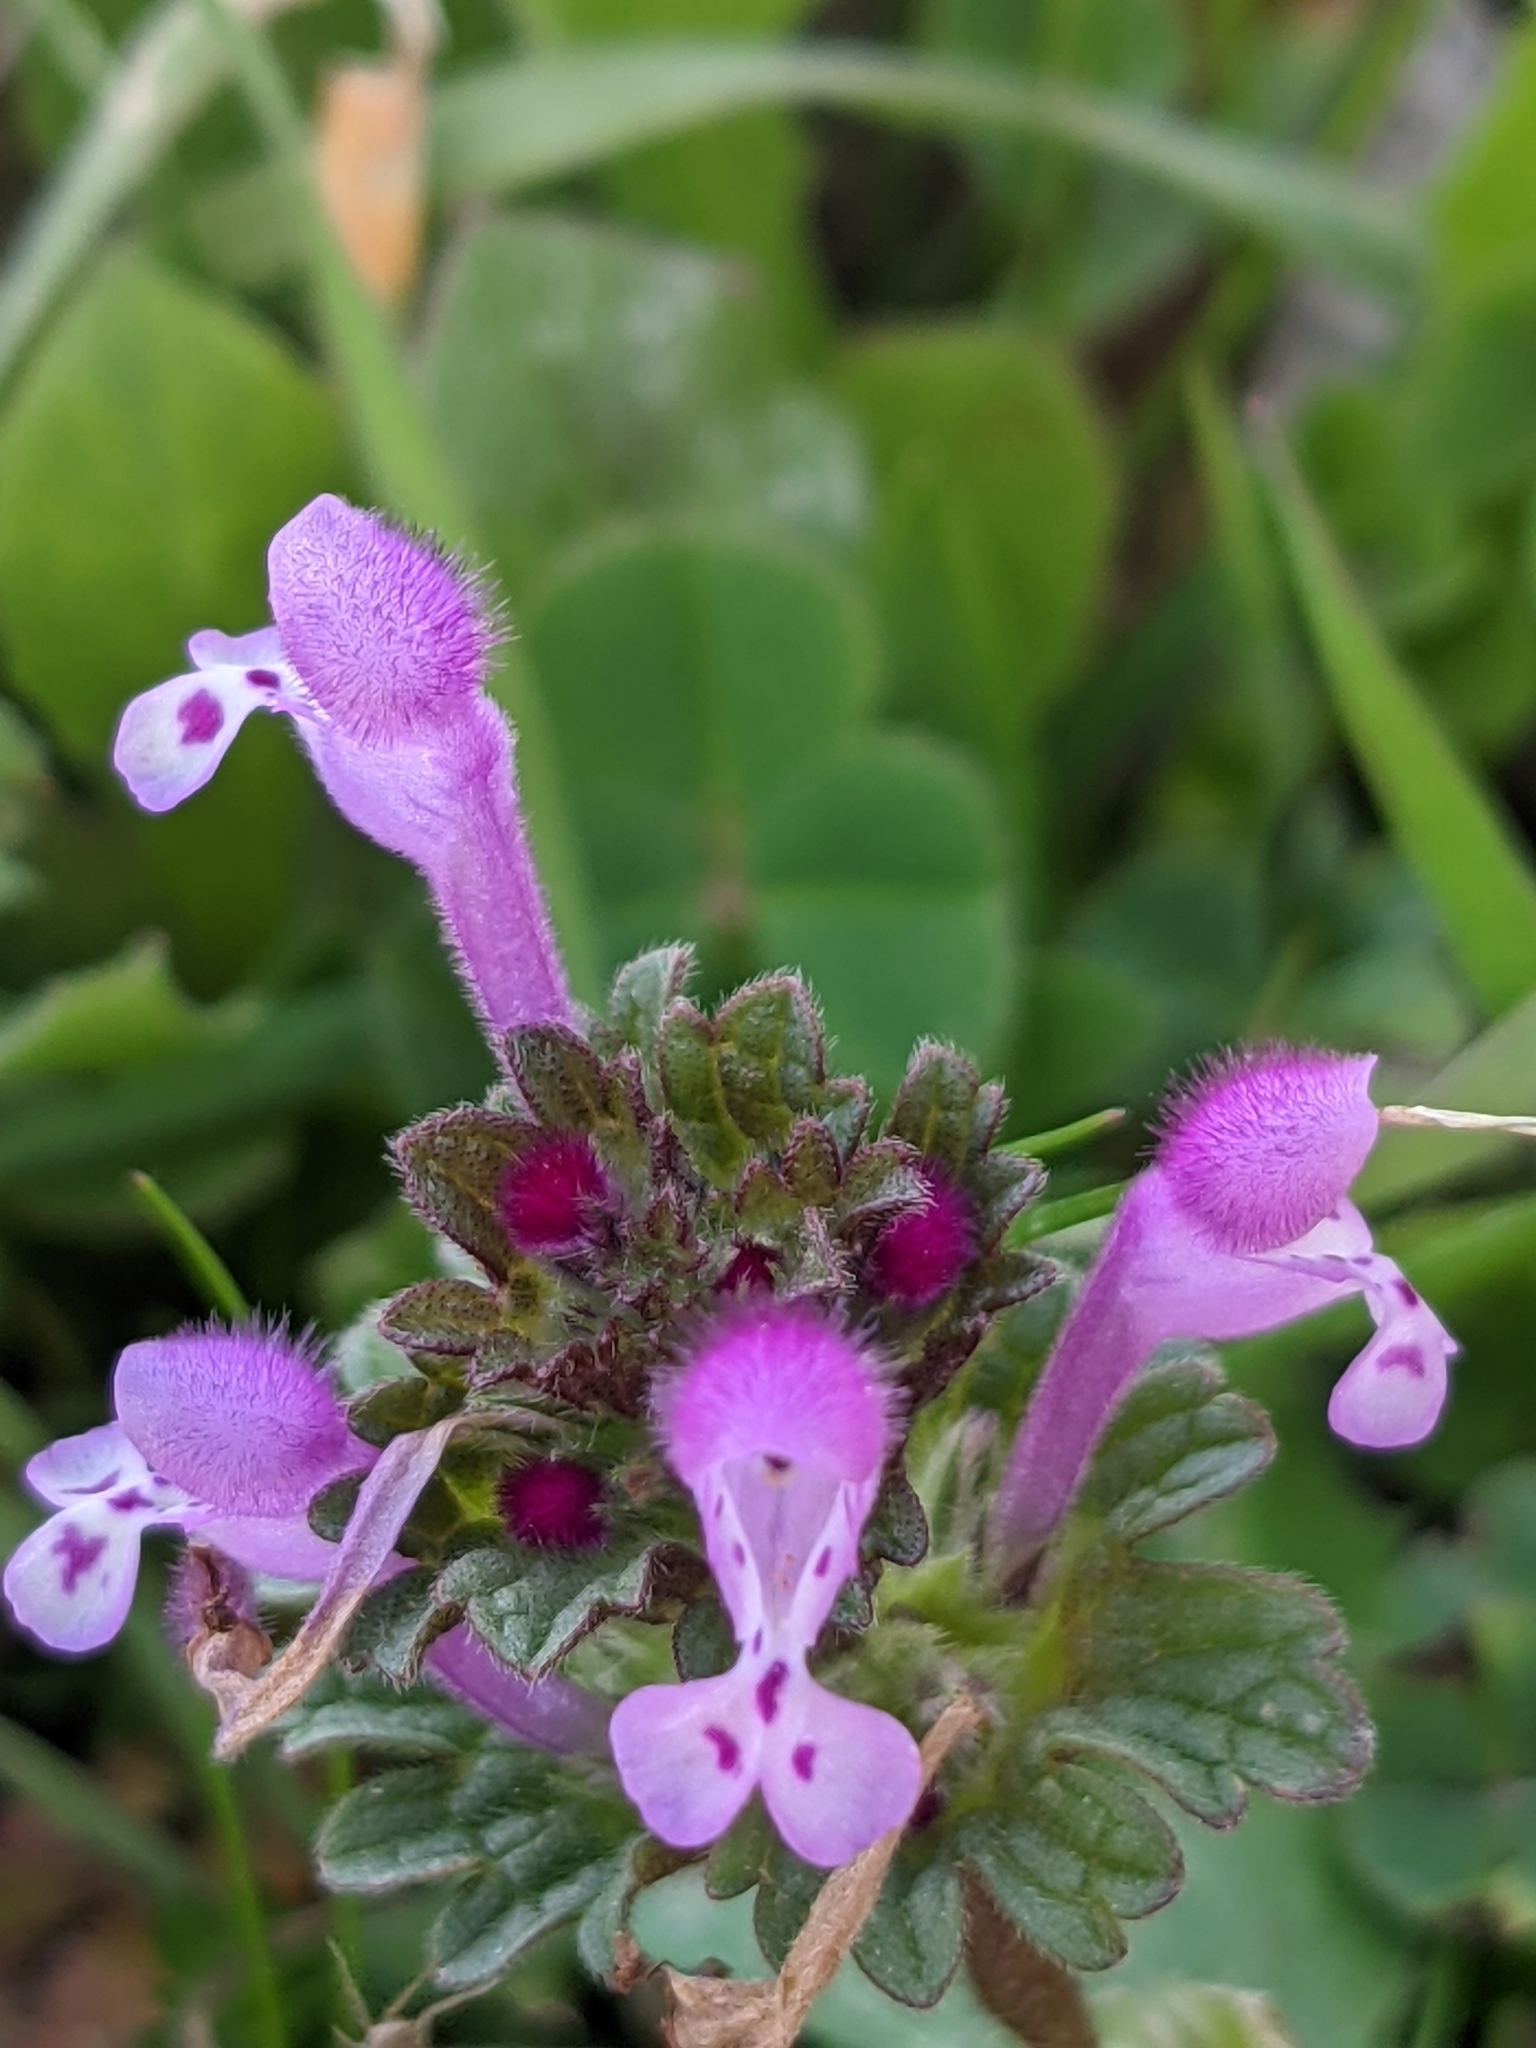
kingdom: Plantae
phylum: Tracheophyta
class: Magnoliopsida
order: Lamiales
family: Lamiaceae
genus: Lamium
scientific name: Lamium amplexicaule
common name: Henbit dead-nettle
